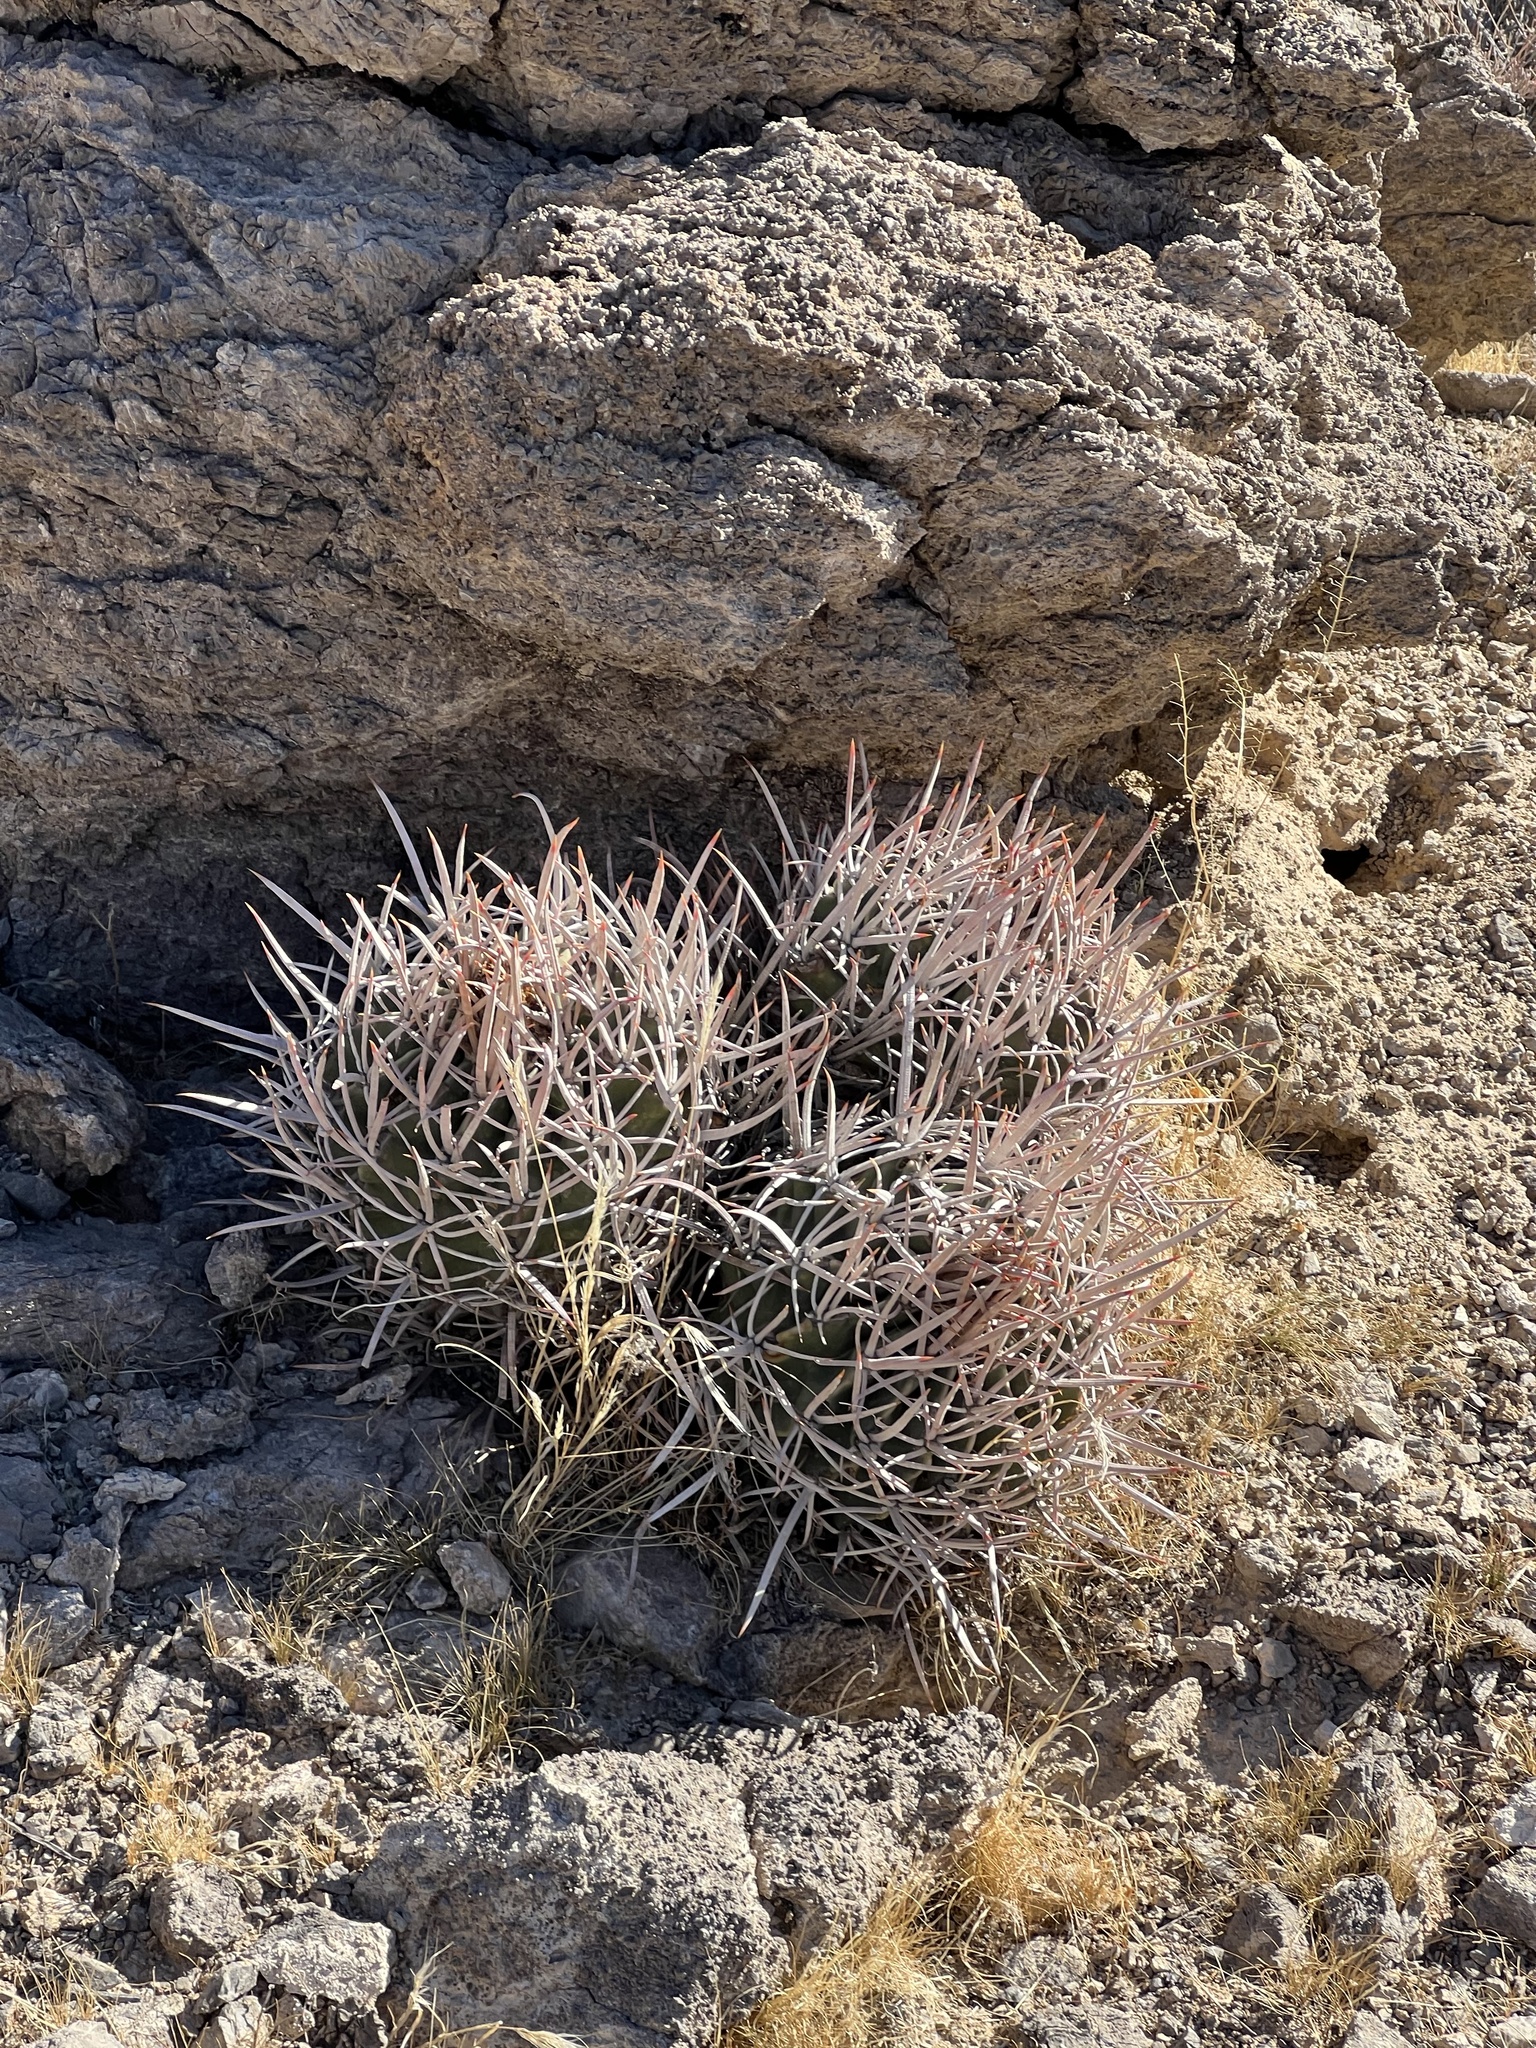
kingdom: Plantae
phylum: Tracheophyta
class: Magnoliopsida
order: Caryophyllales
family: Cactaceae
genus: Echinocactus
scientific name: Echinocactus polycephalus
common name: Cottontop cactus
